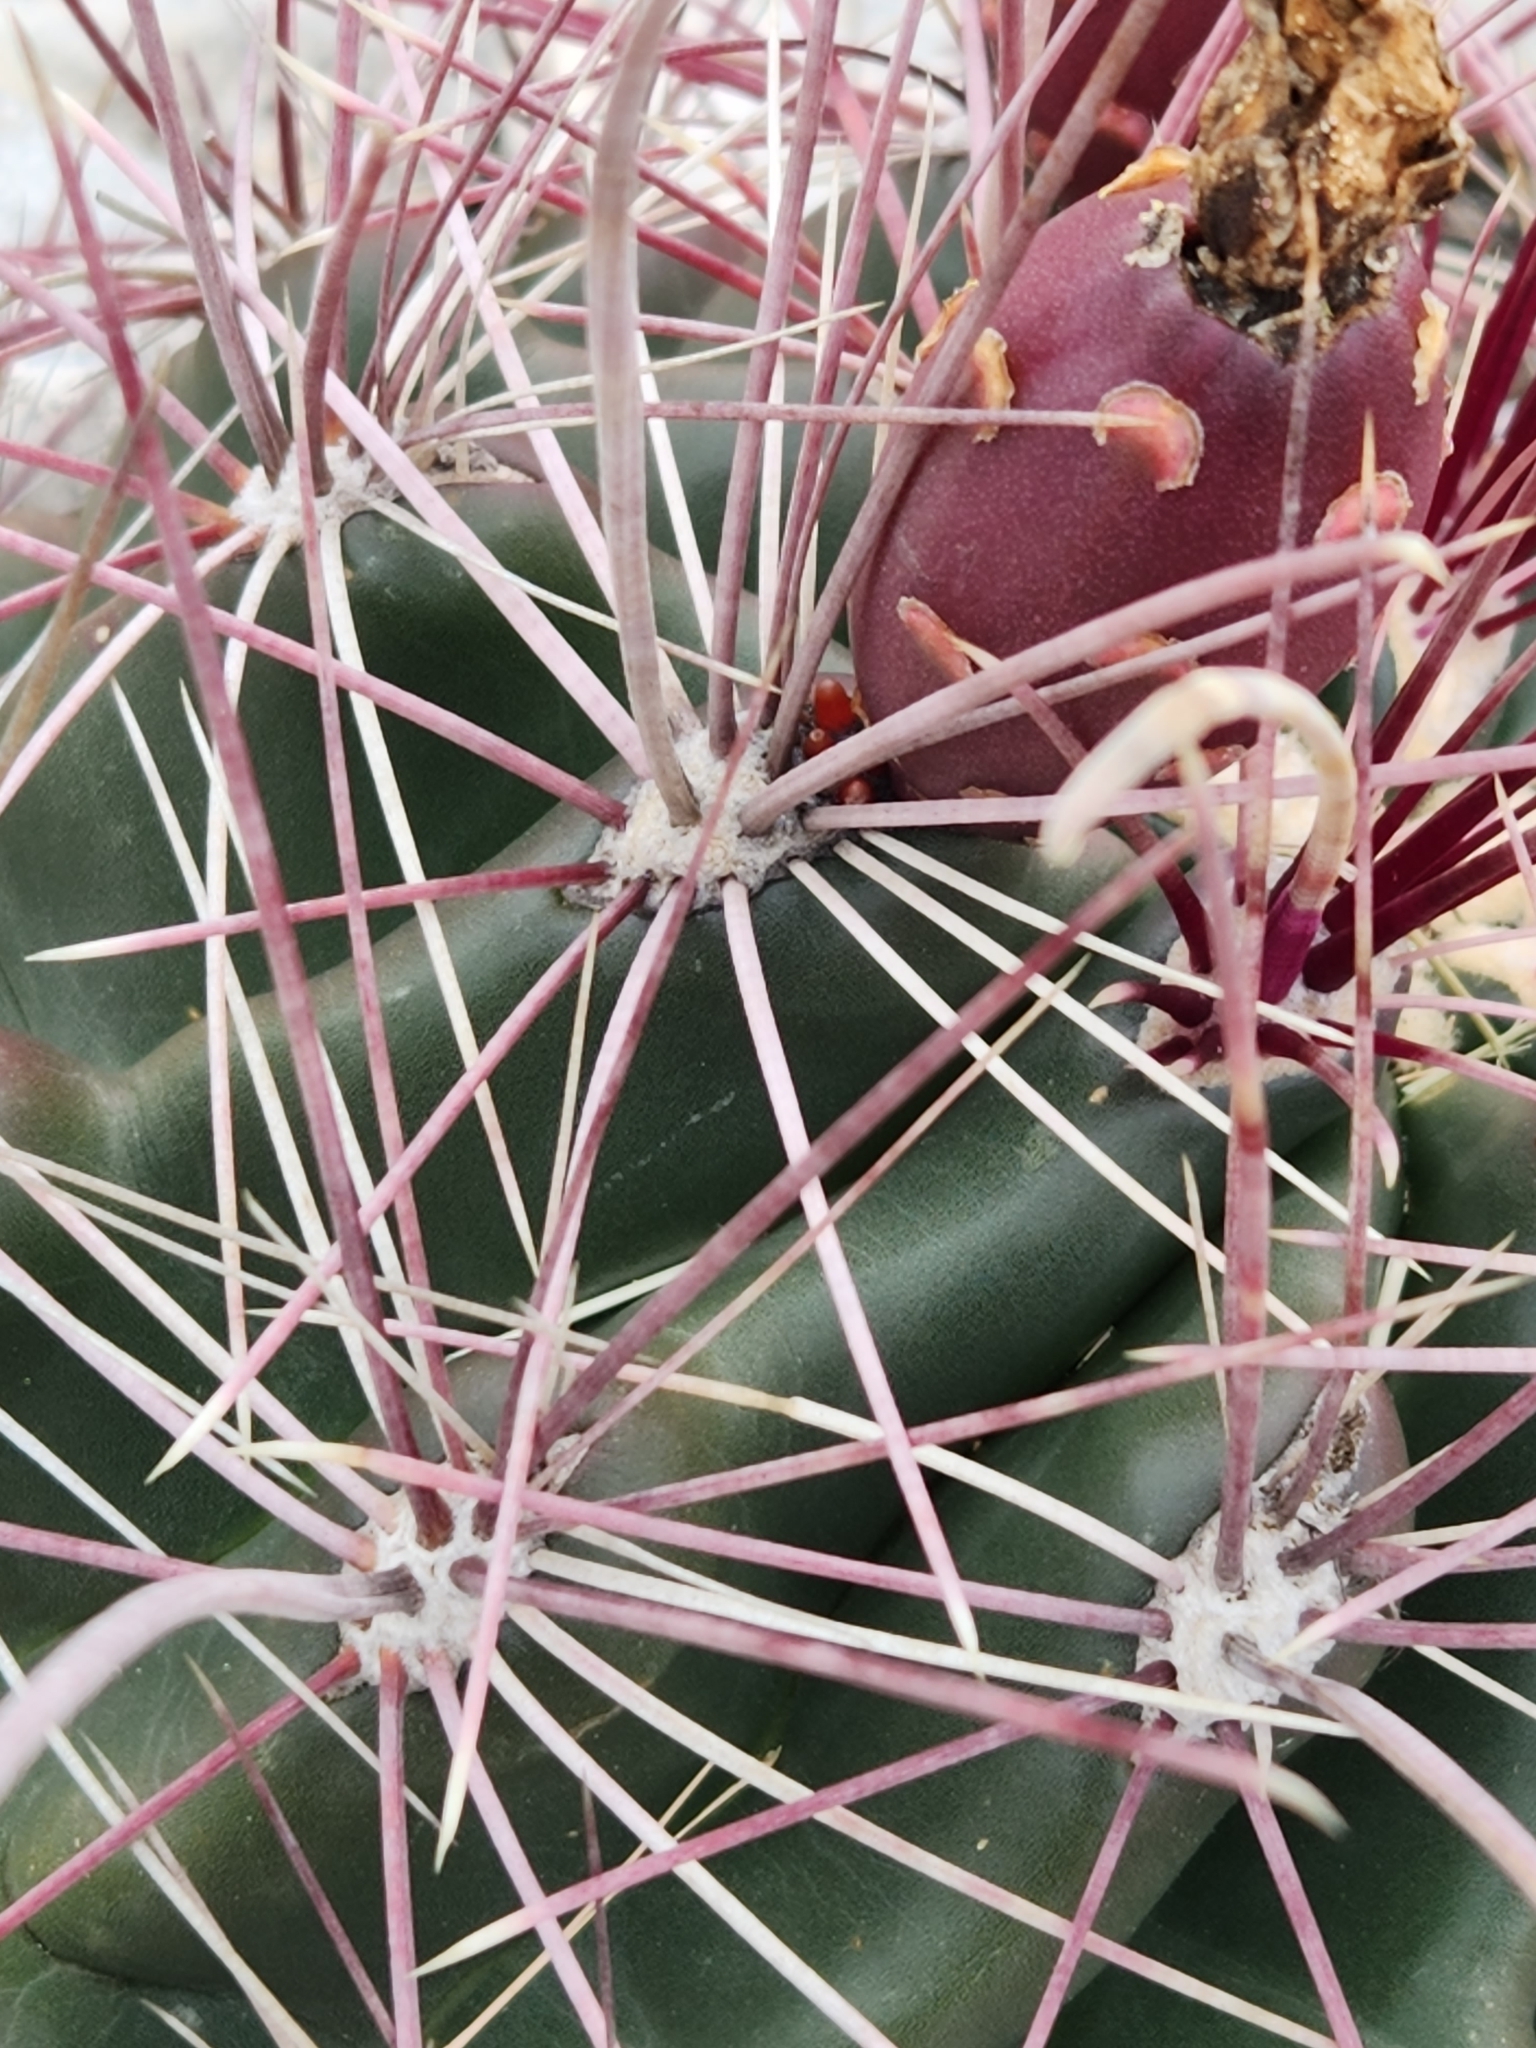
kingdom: Plantae
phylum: Tracheophyta
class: Magnoliopsida
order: Caryophyllales
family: Cactaceae
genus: Bisnaga
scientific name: Bisnaga hamatacantha
